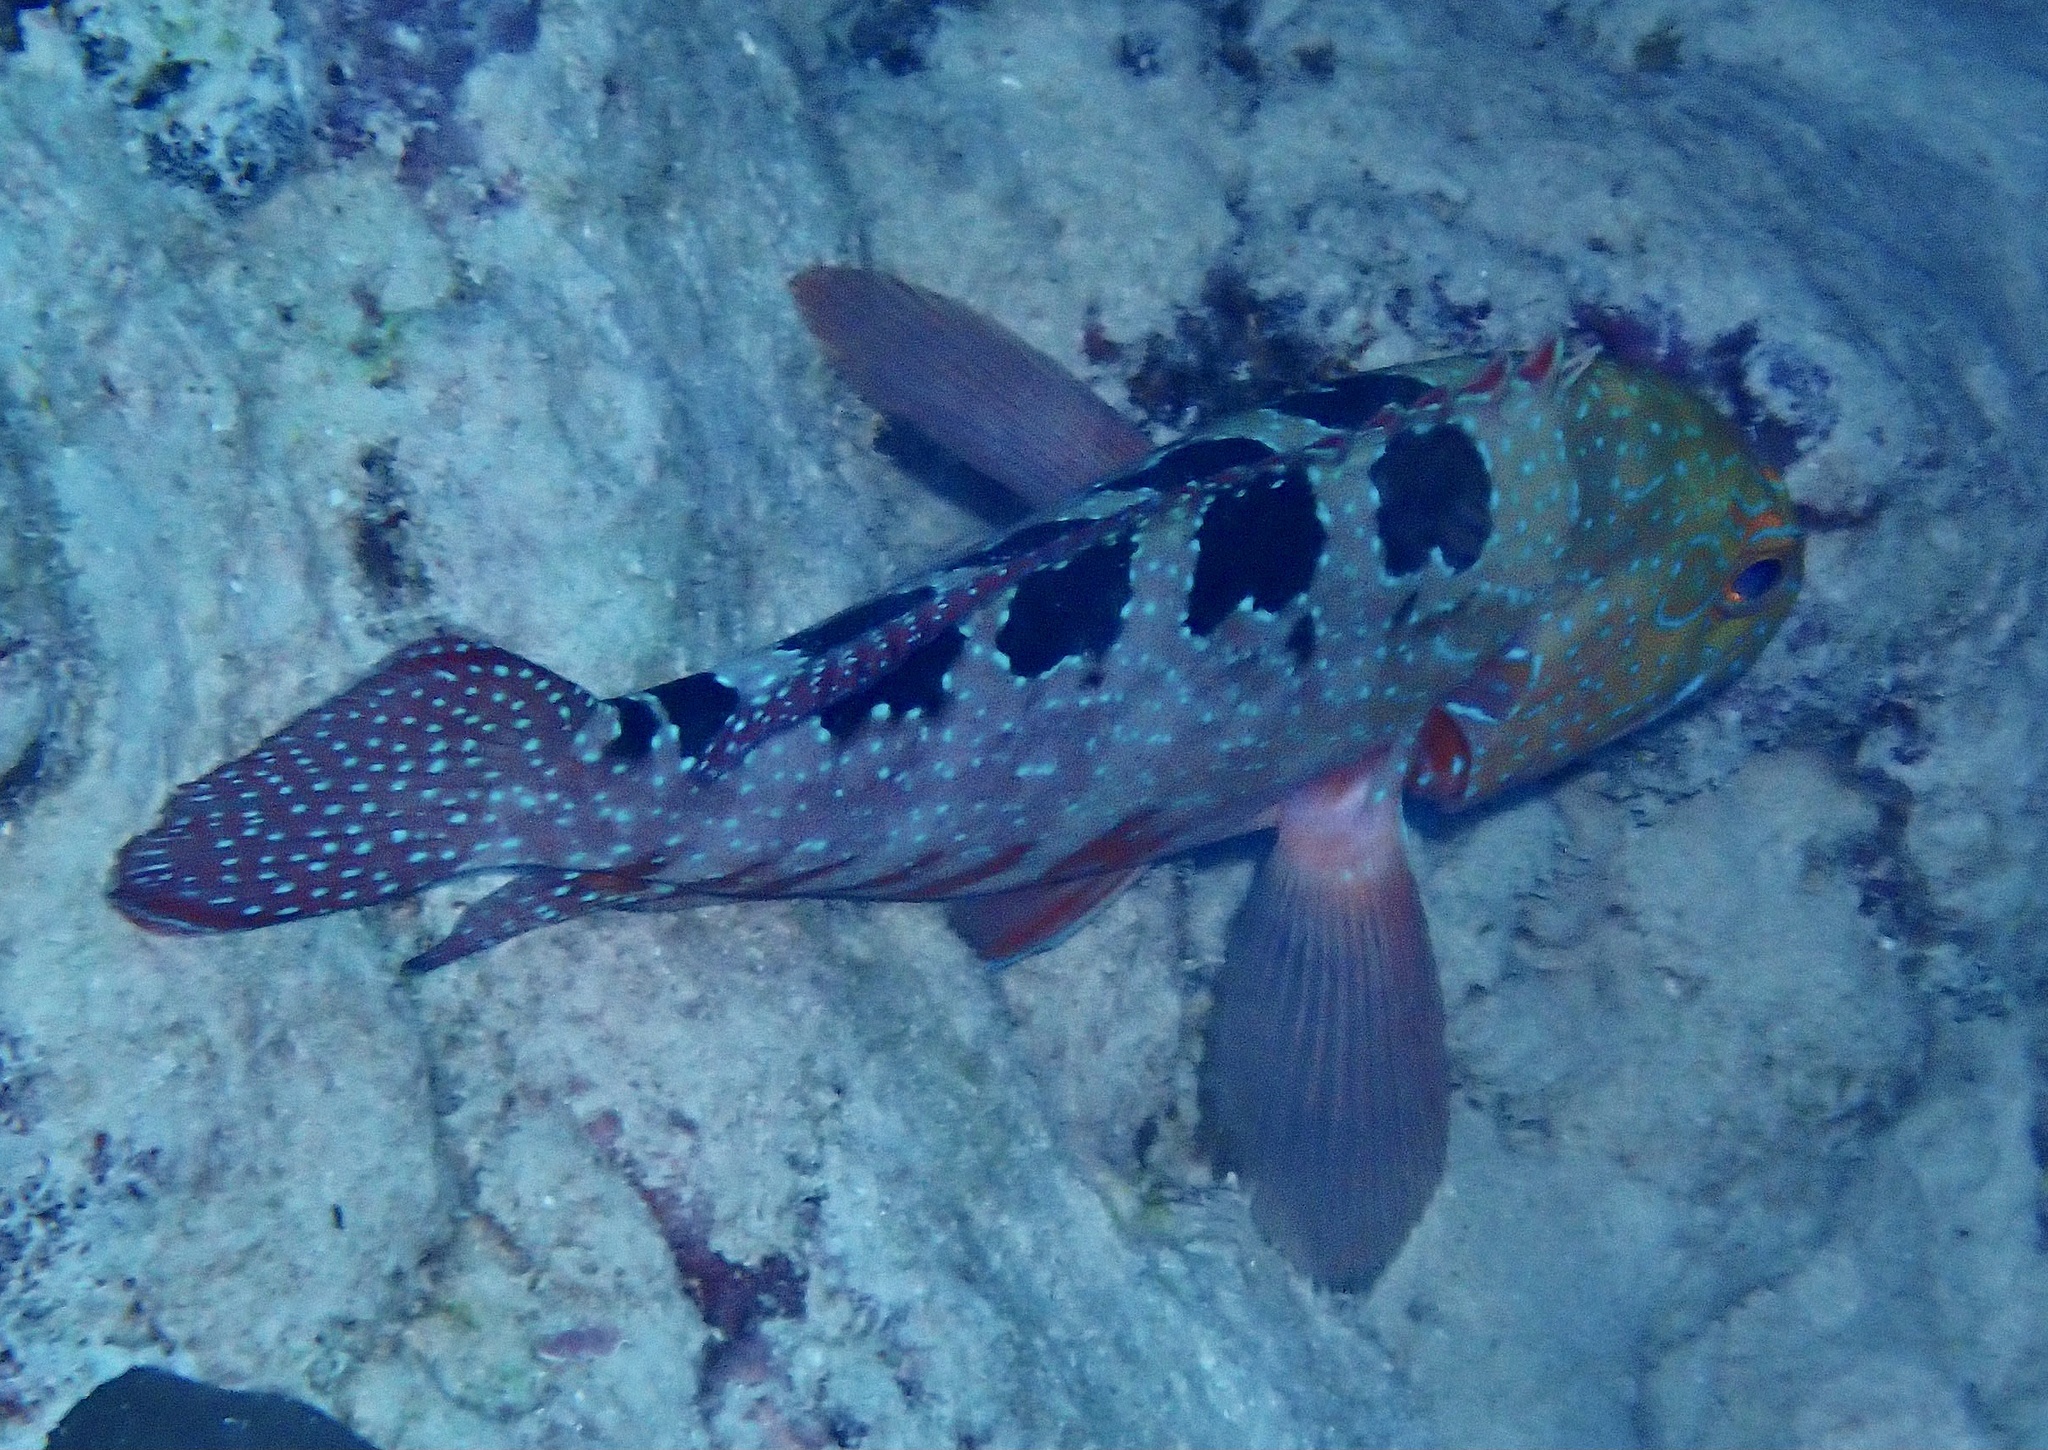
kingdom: Animalia
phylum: Chordata
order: Perciformes
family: Serranidae
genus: Cephalopholis
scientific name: Cephalopholis sexmaculata
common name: Sixblotch hind
